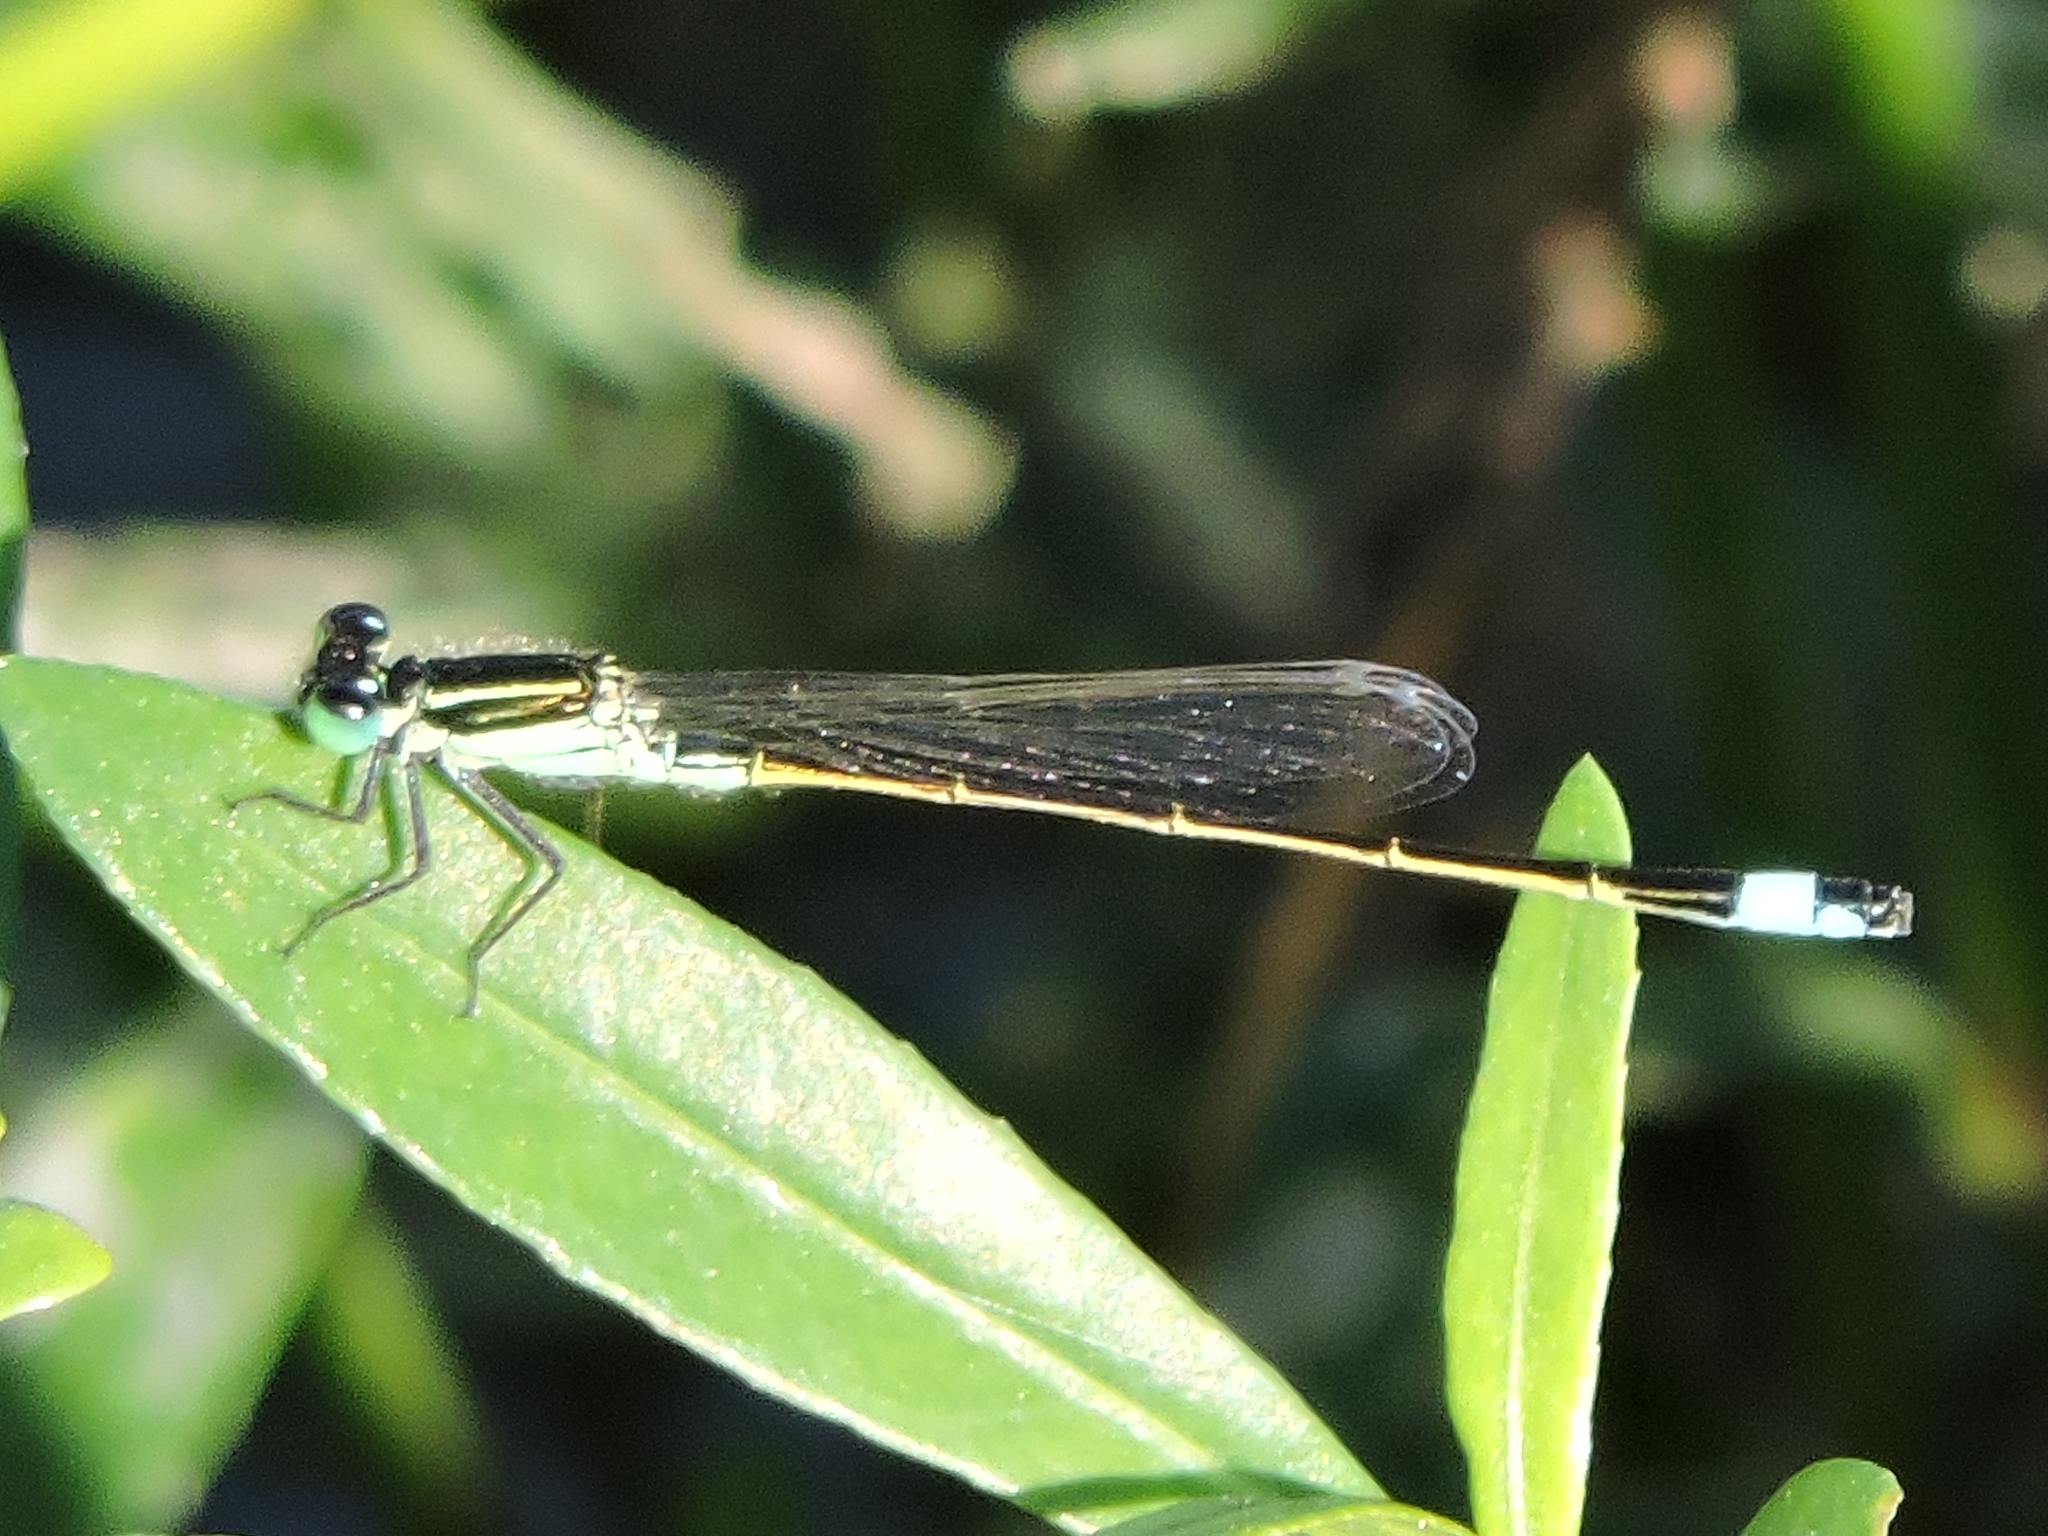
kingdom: Animalia
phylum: Arthropoda
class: Insecta
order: Odonata
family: Coenagrionidae
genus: Ischnura
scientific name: Ischnura ramburii
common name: Rambur's forktail
